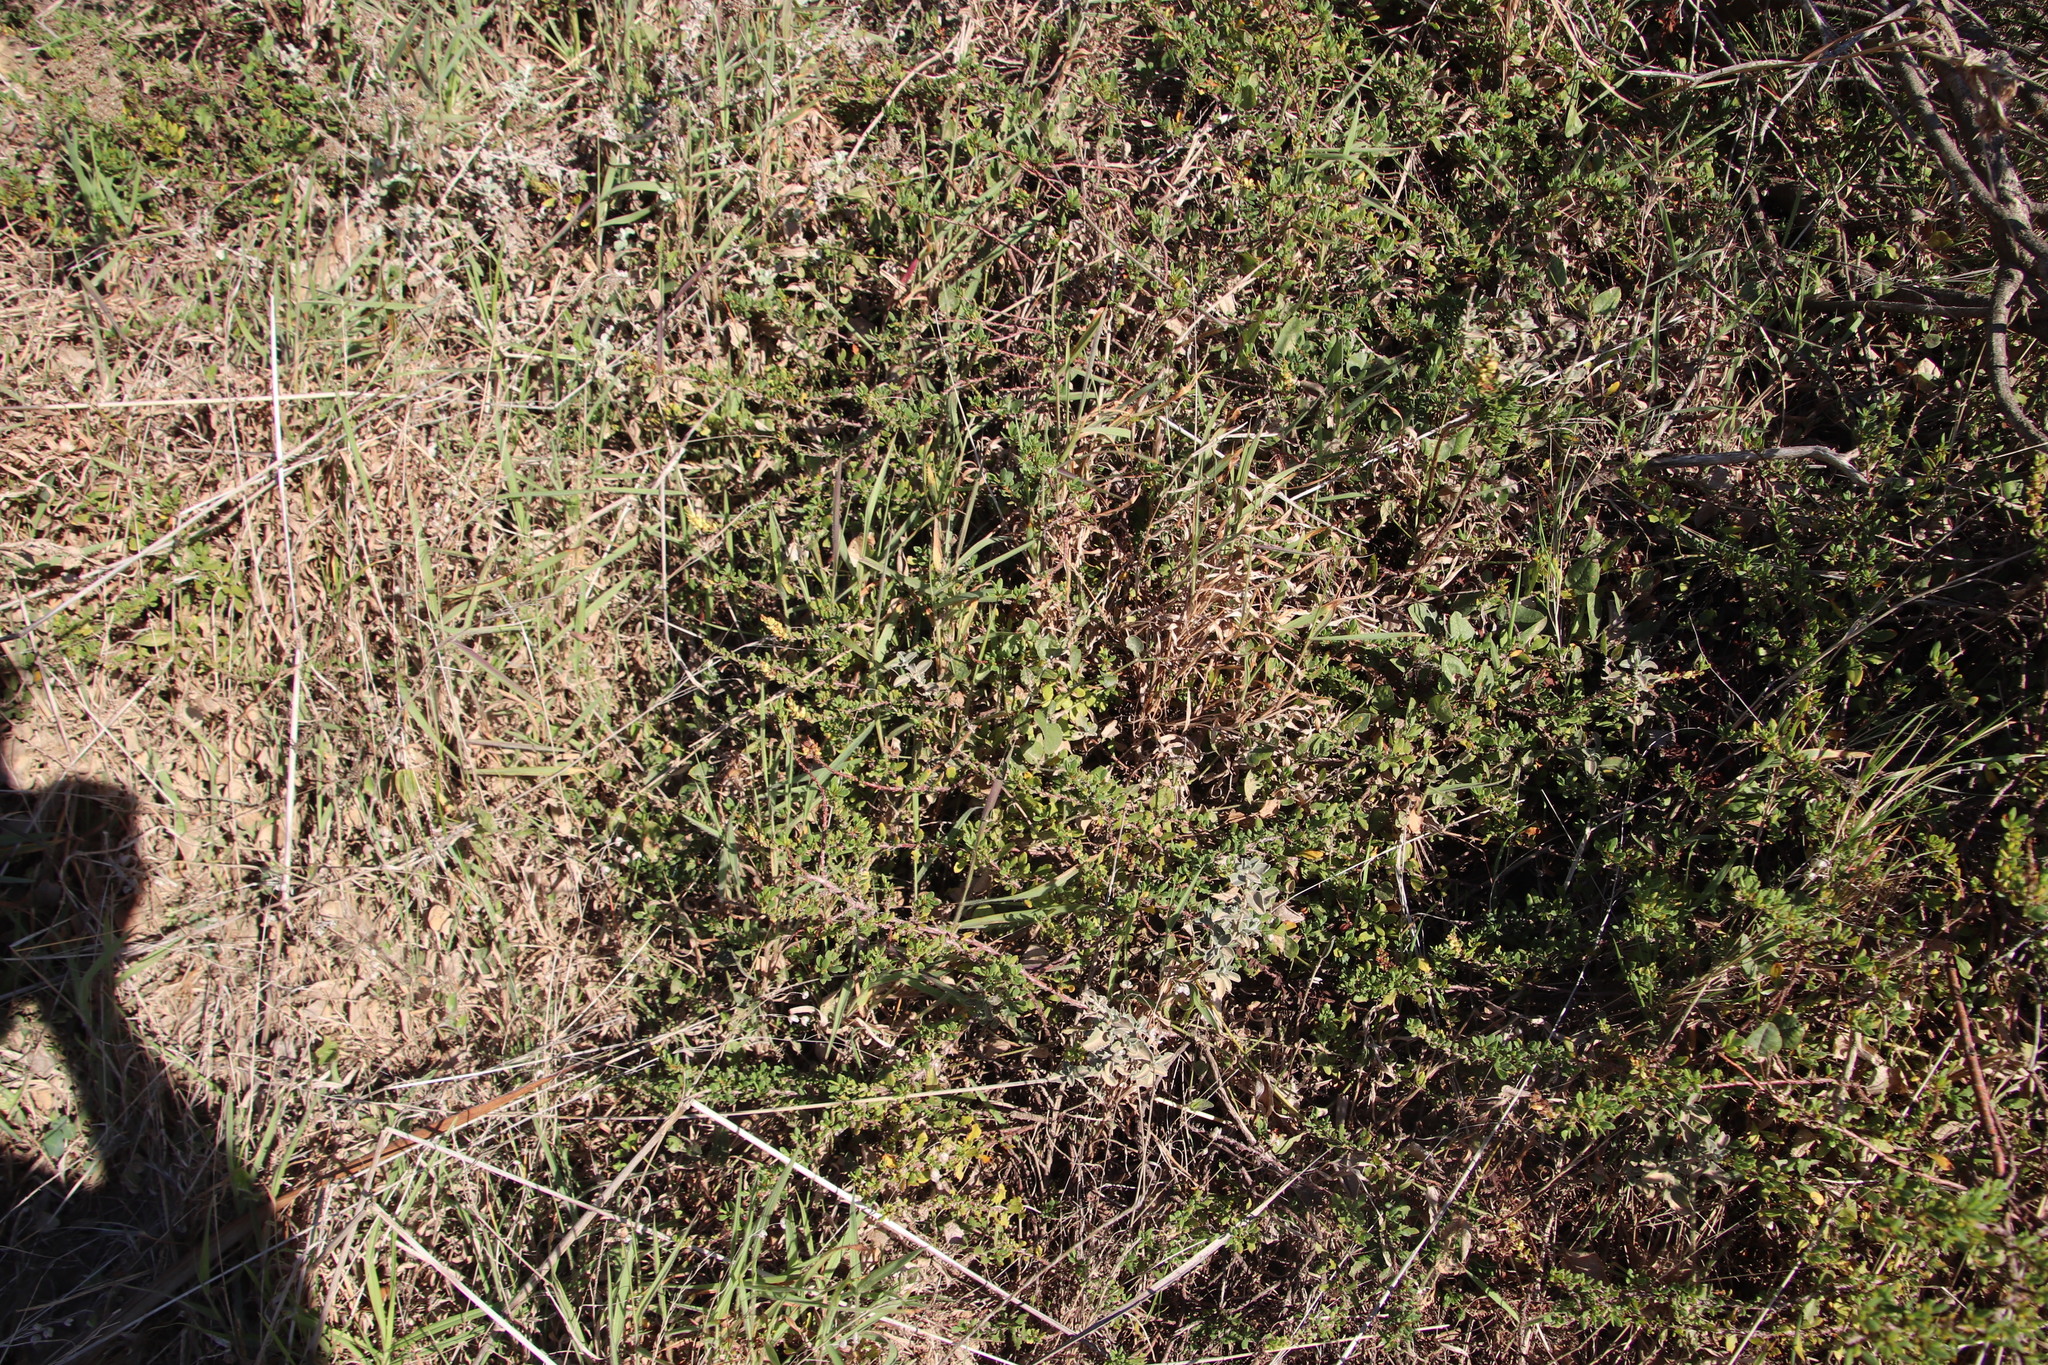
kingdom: Plantae
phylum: Tracheophyta
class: Magnoliopsida
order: Caryophyllales
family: Aizoaceae
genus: Tetragonia
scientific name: Tetragonia fruticosa
